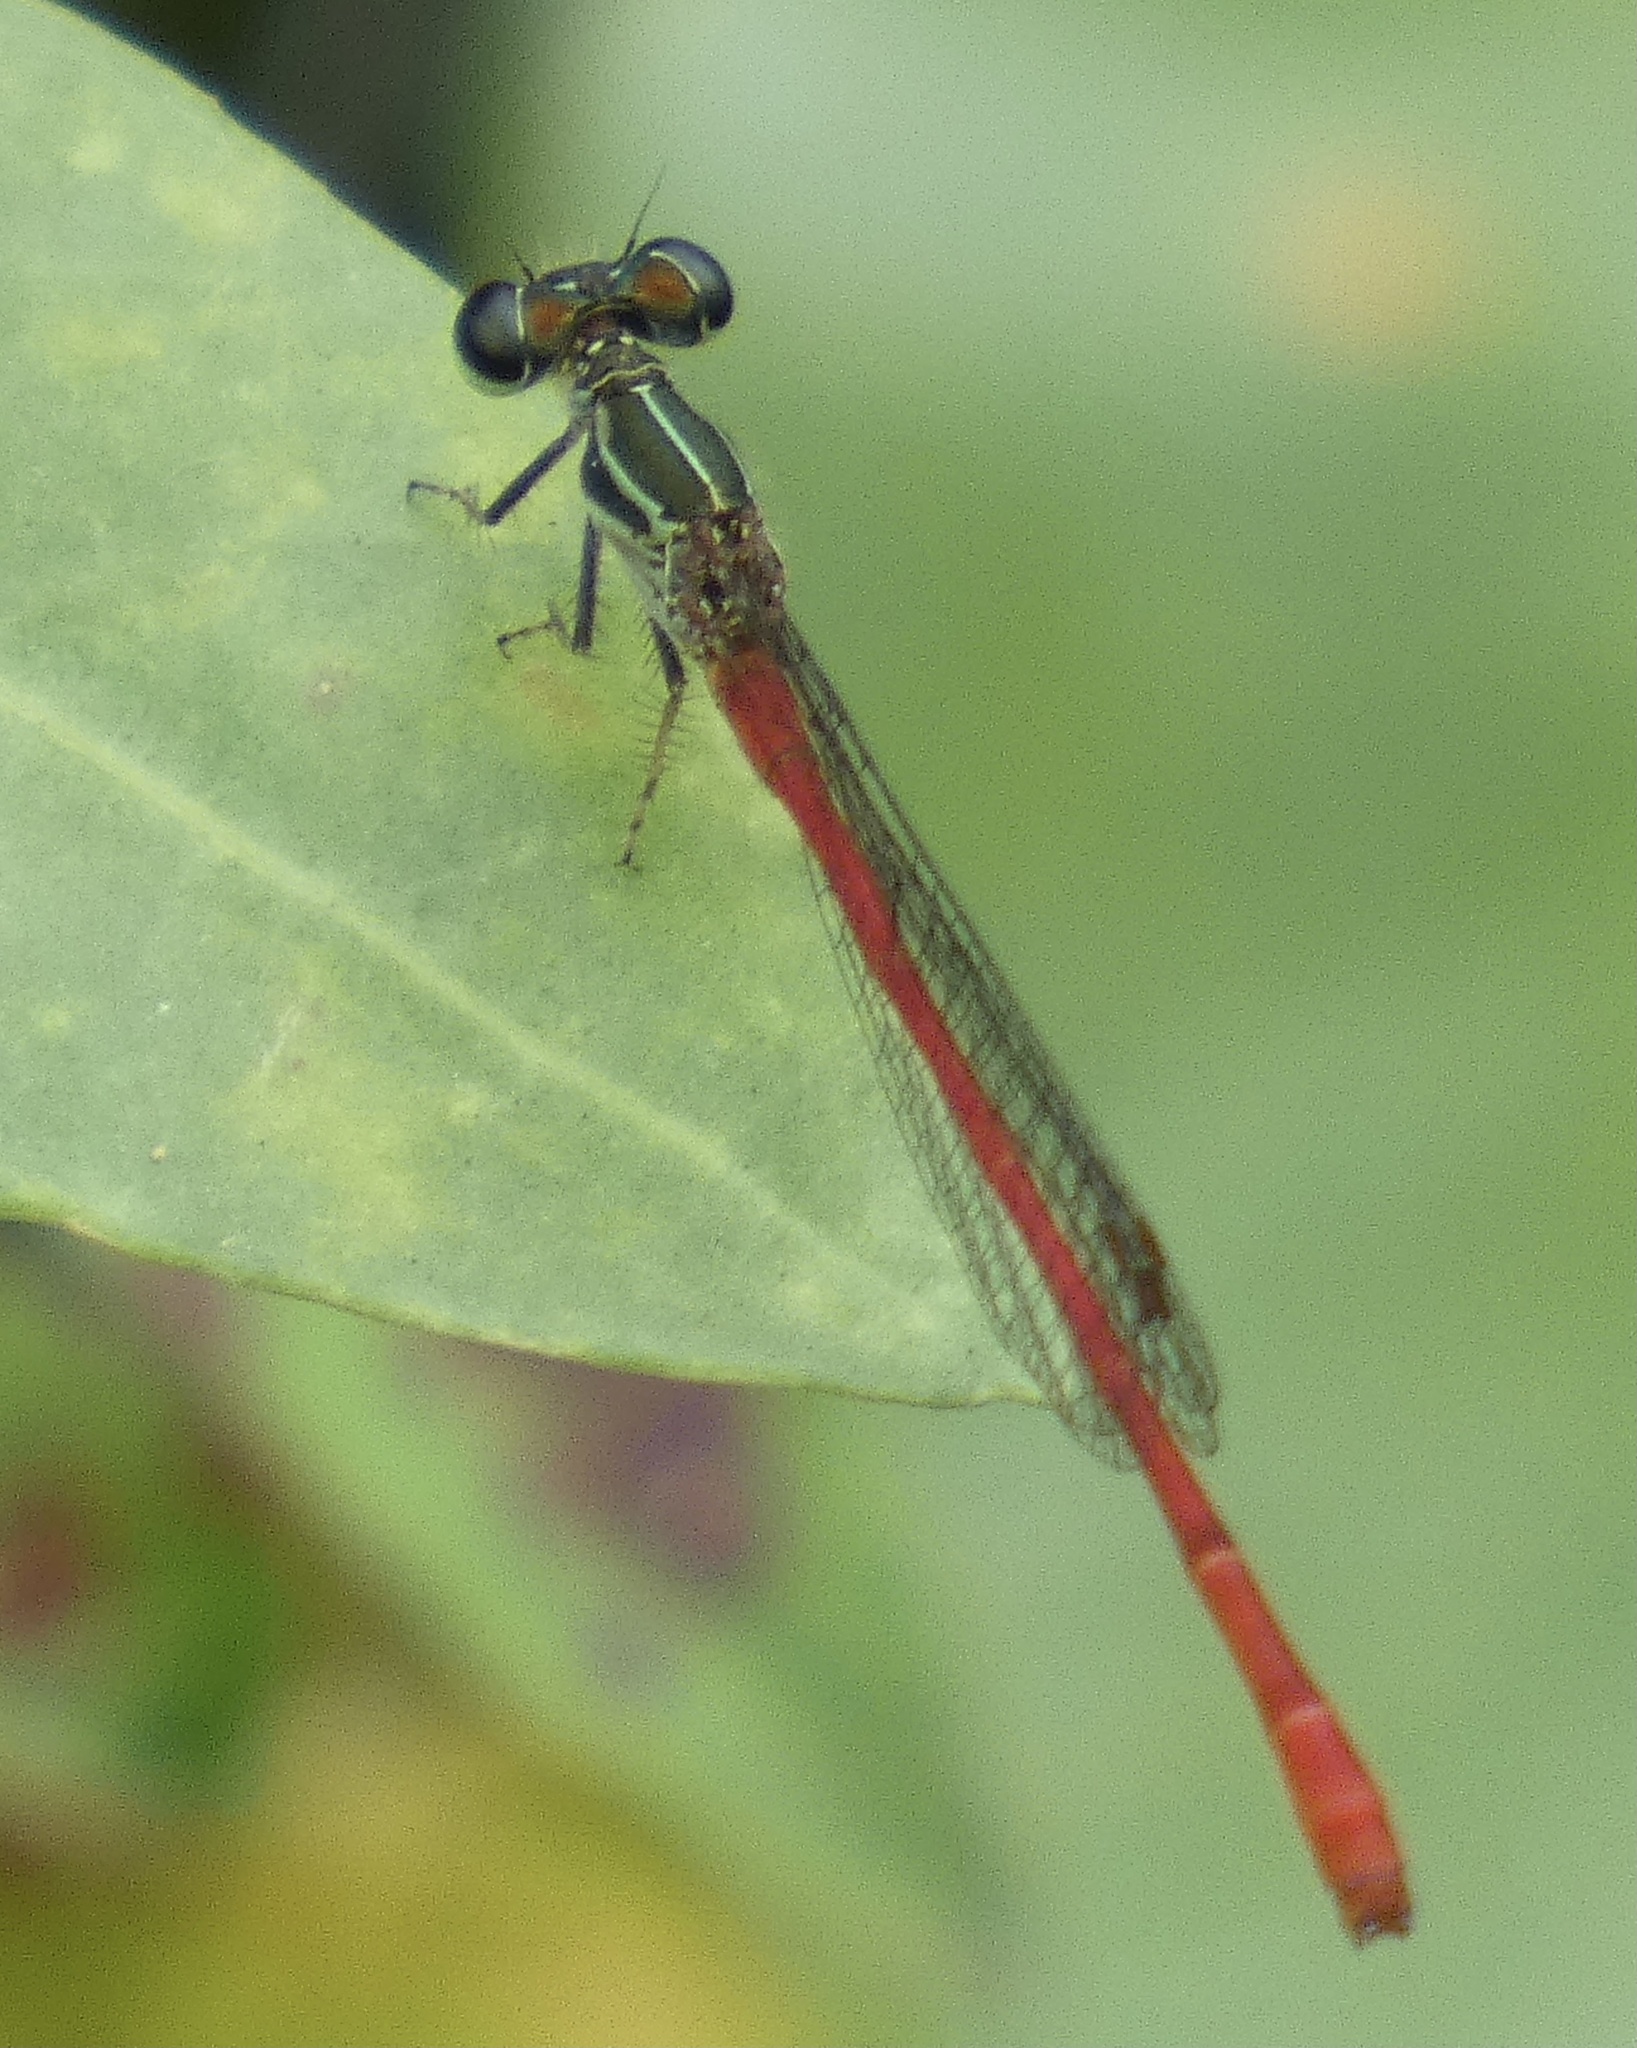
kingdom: Animalia
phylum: Arthropoda
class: Insecta
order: Odonata
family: Coenagrionidae
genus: Telebasis
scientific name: Telebasis filiola
